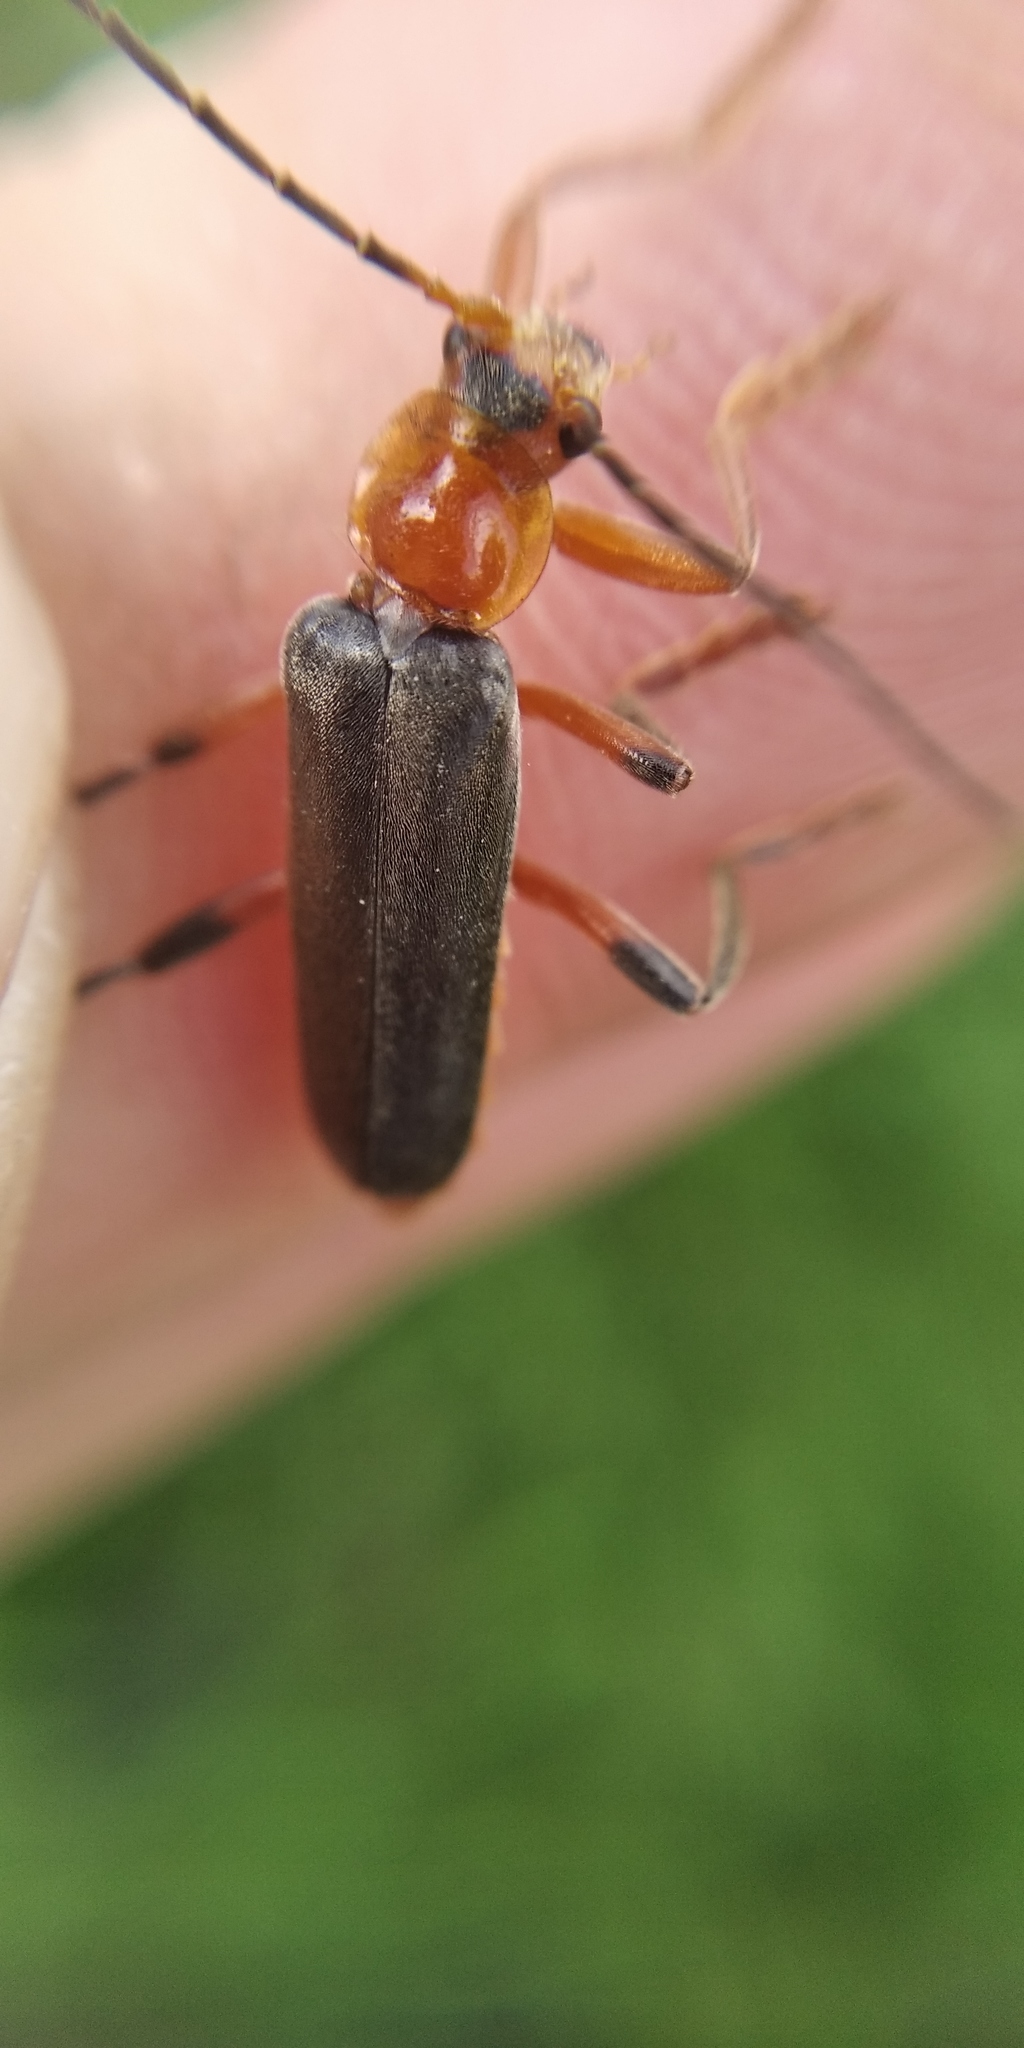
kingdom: Animalia
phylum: Arthropoda
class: Insecta
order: Coleoptera
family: Cantharidae
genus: Cantharis
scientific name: Cantharis livida
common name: Livid soldier beetle
